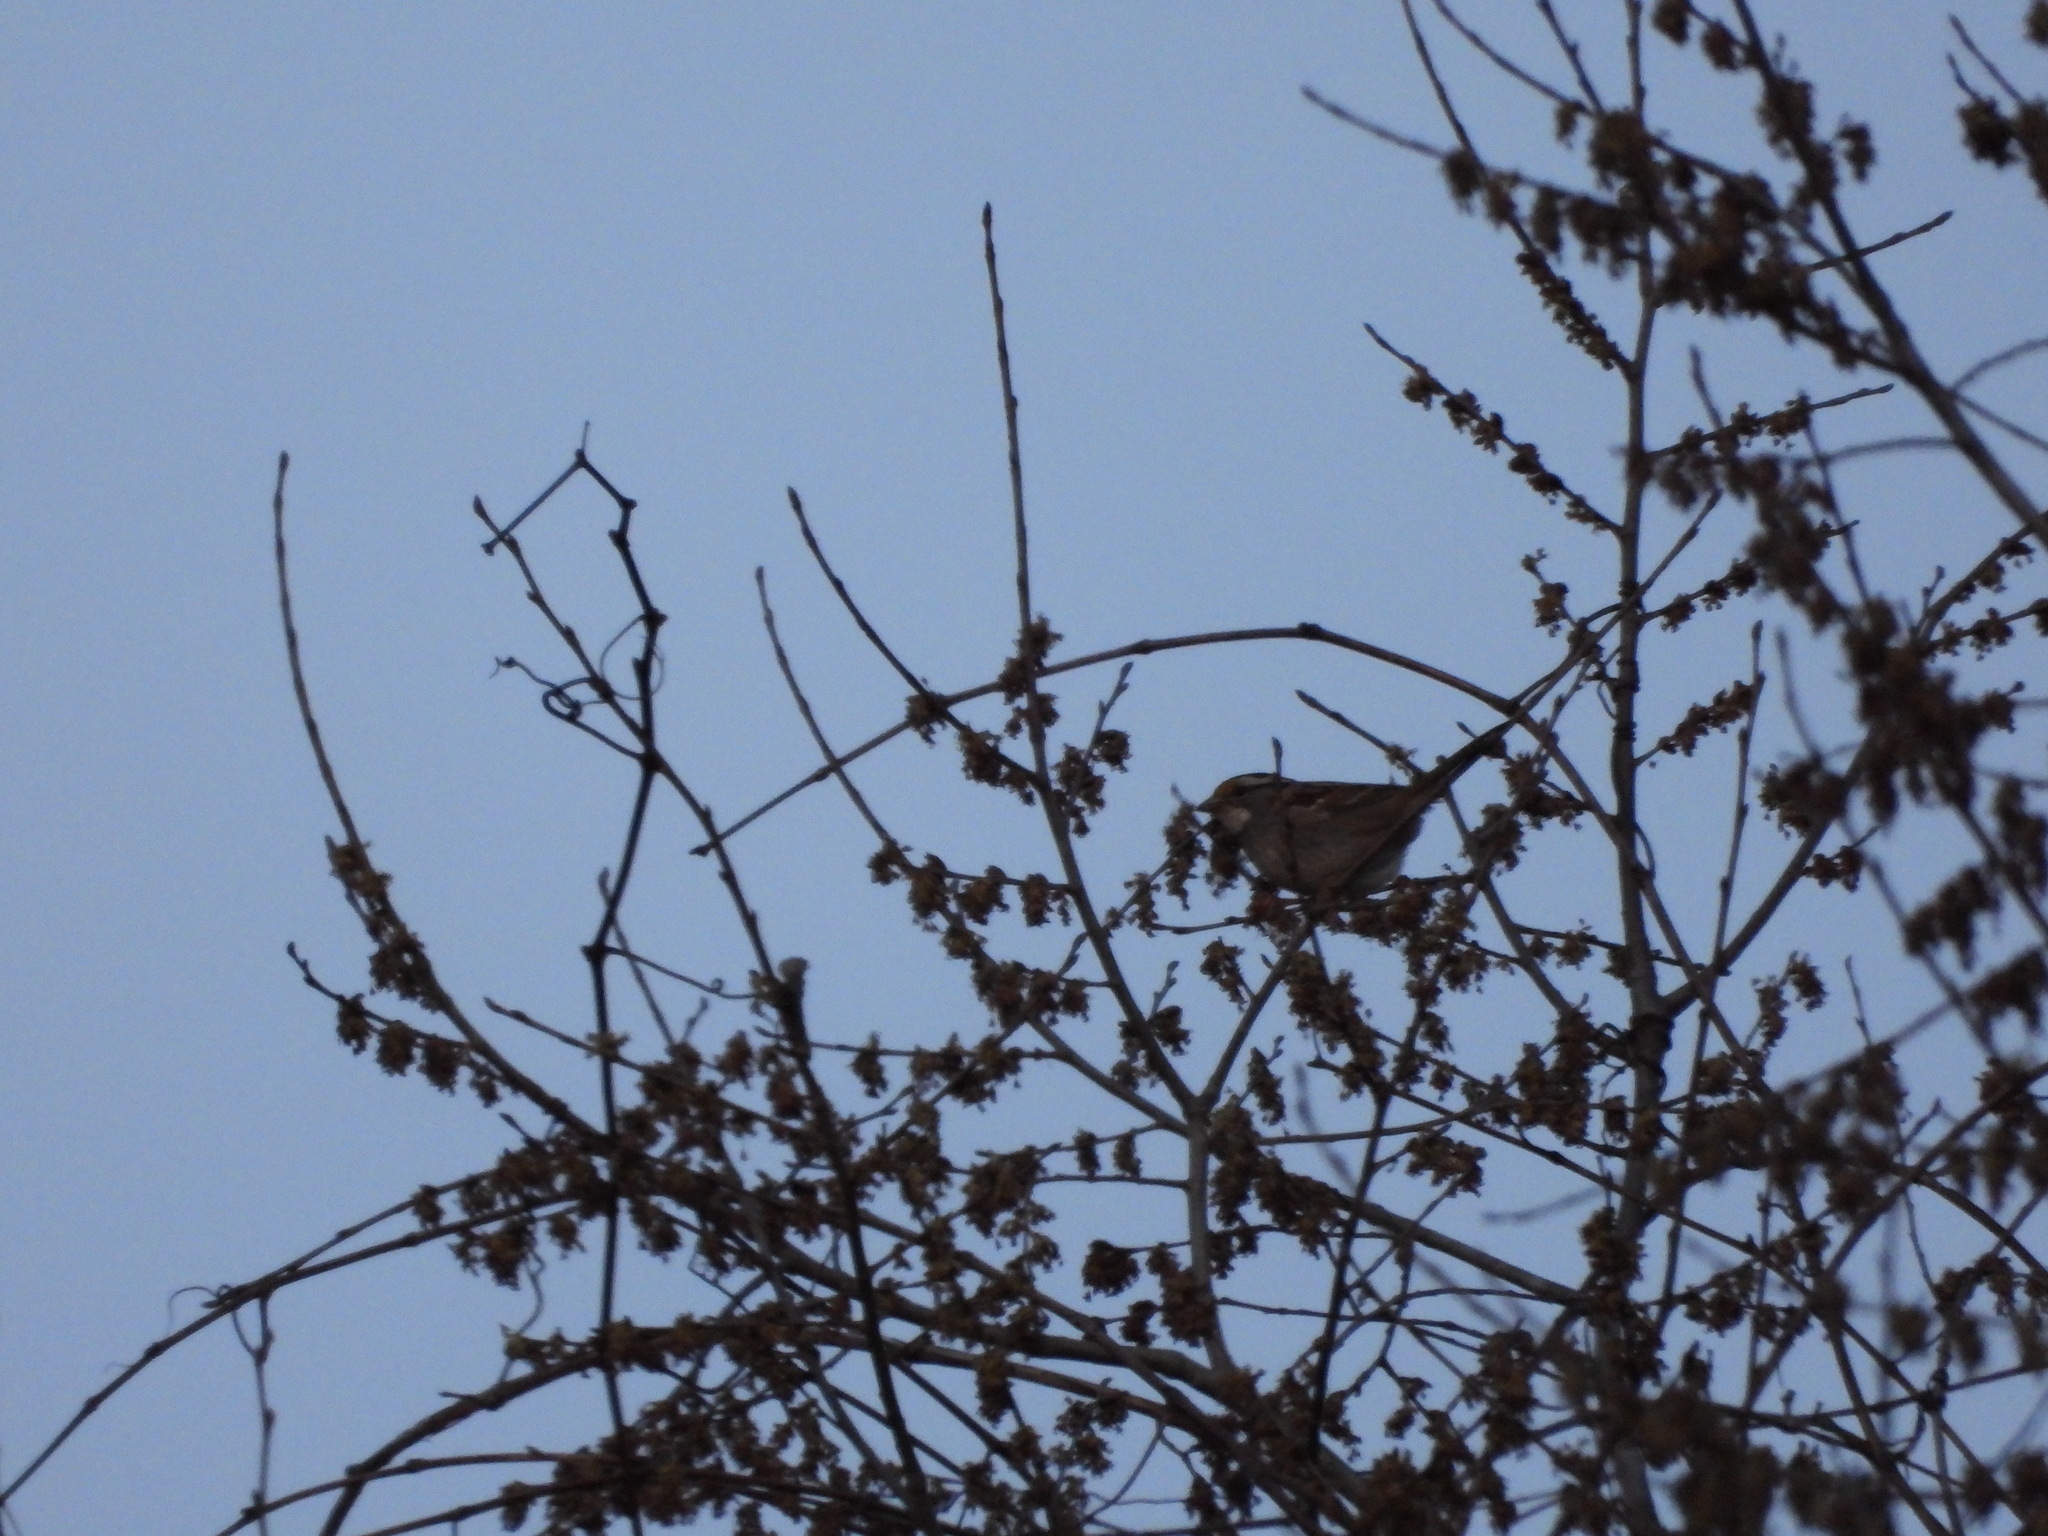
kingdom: Animalia
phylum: Chordata
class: Aves
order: Passeriformes
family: Passerellidae
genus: Zonotrichia
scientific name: Zonotrichia albicollis
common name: White-throated sparrow
